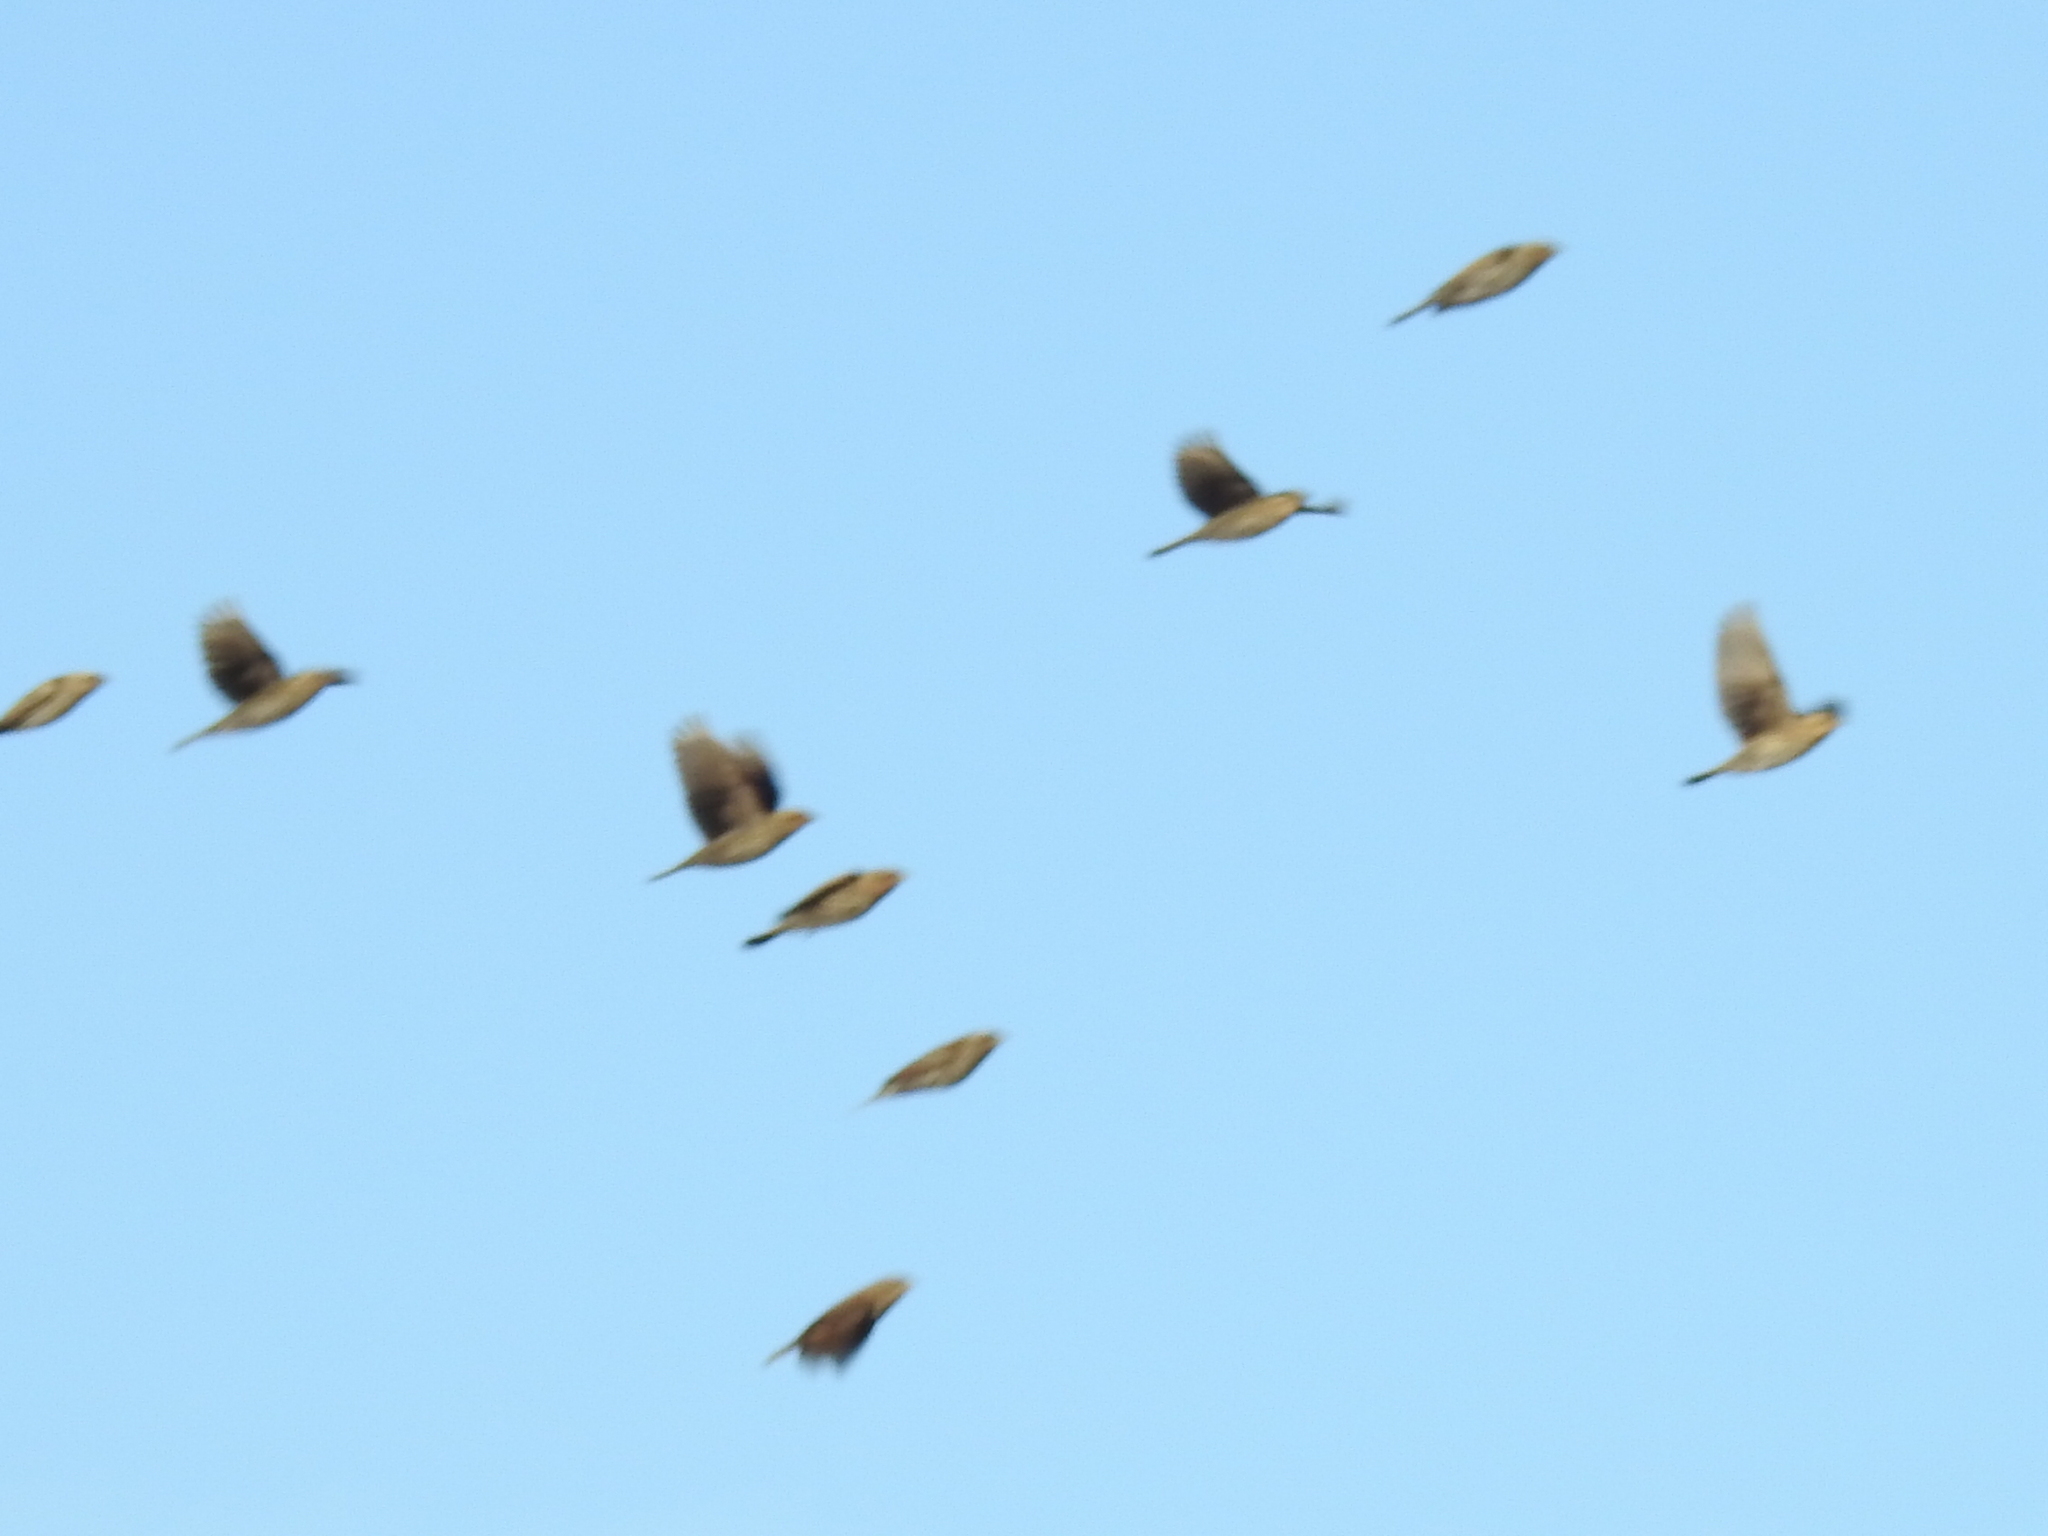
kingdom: Animalia
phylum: Chordata
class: Aves
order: Passeriformes
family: Icteridae
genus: Agelaius
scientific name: Agelaius phoeniceus
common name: Red-winged blackbird
